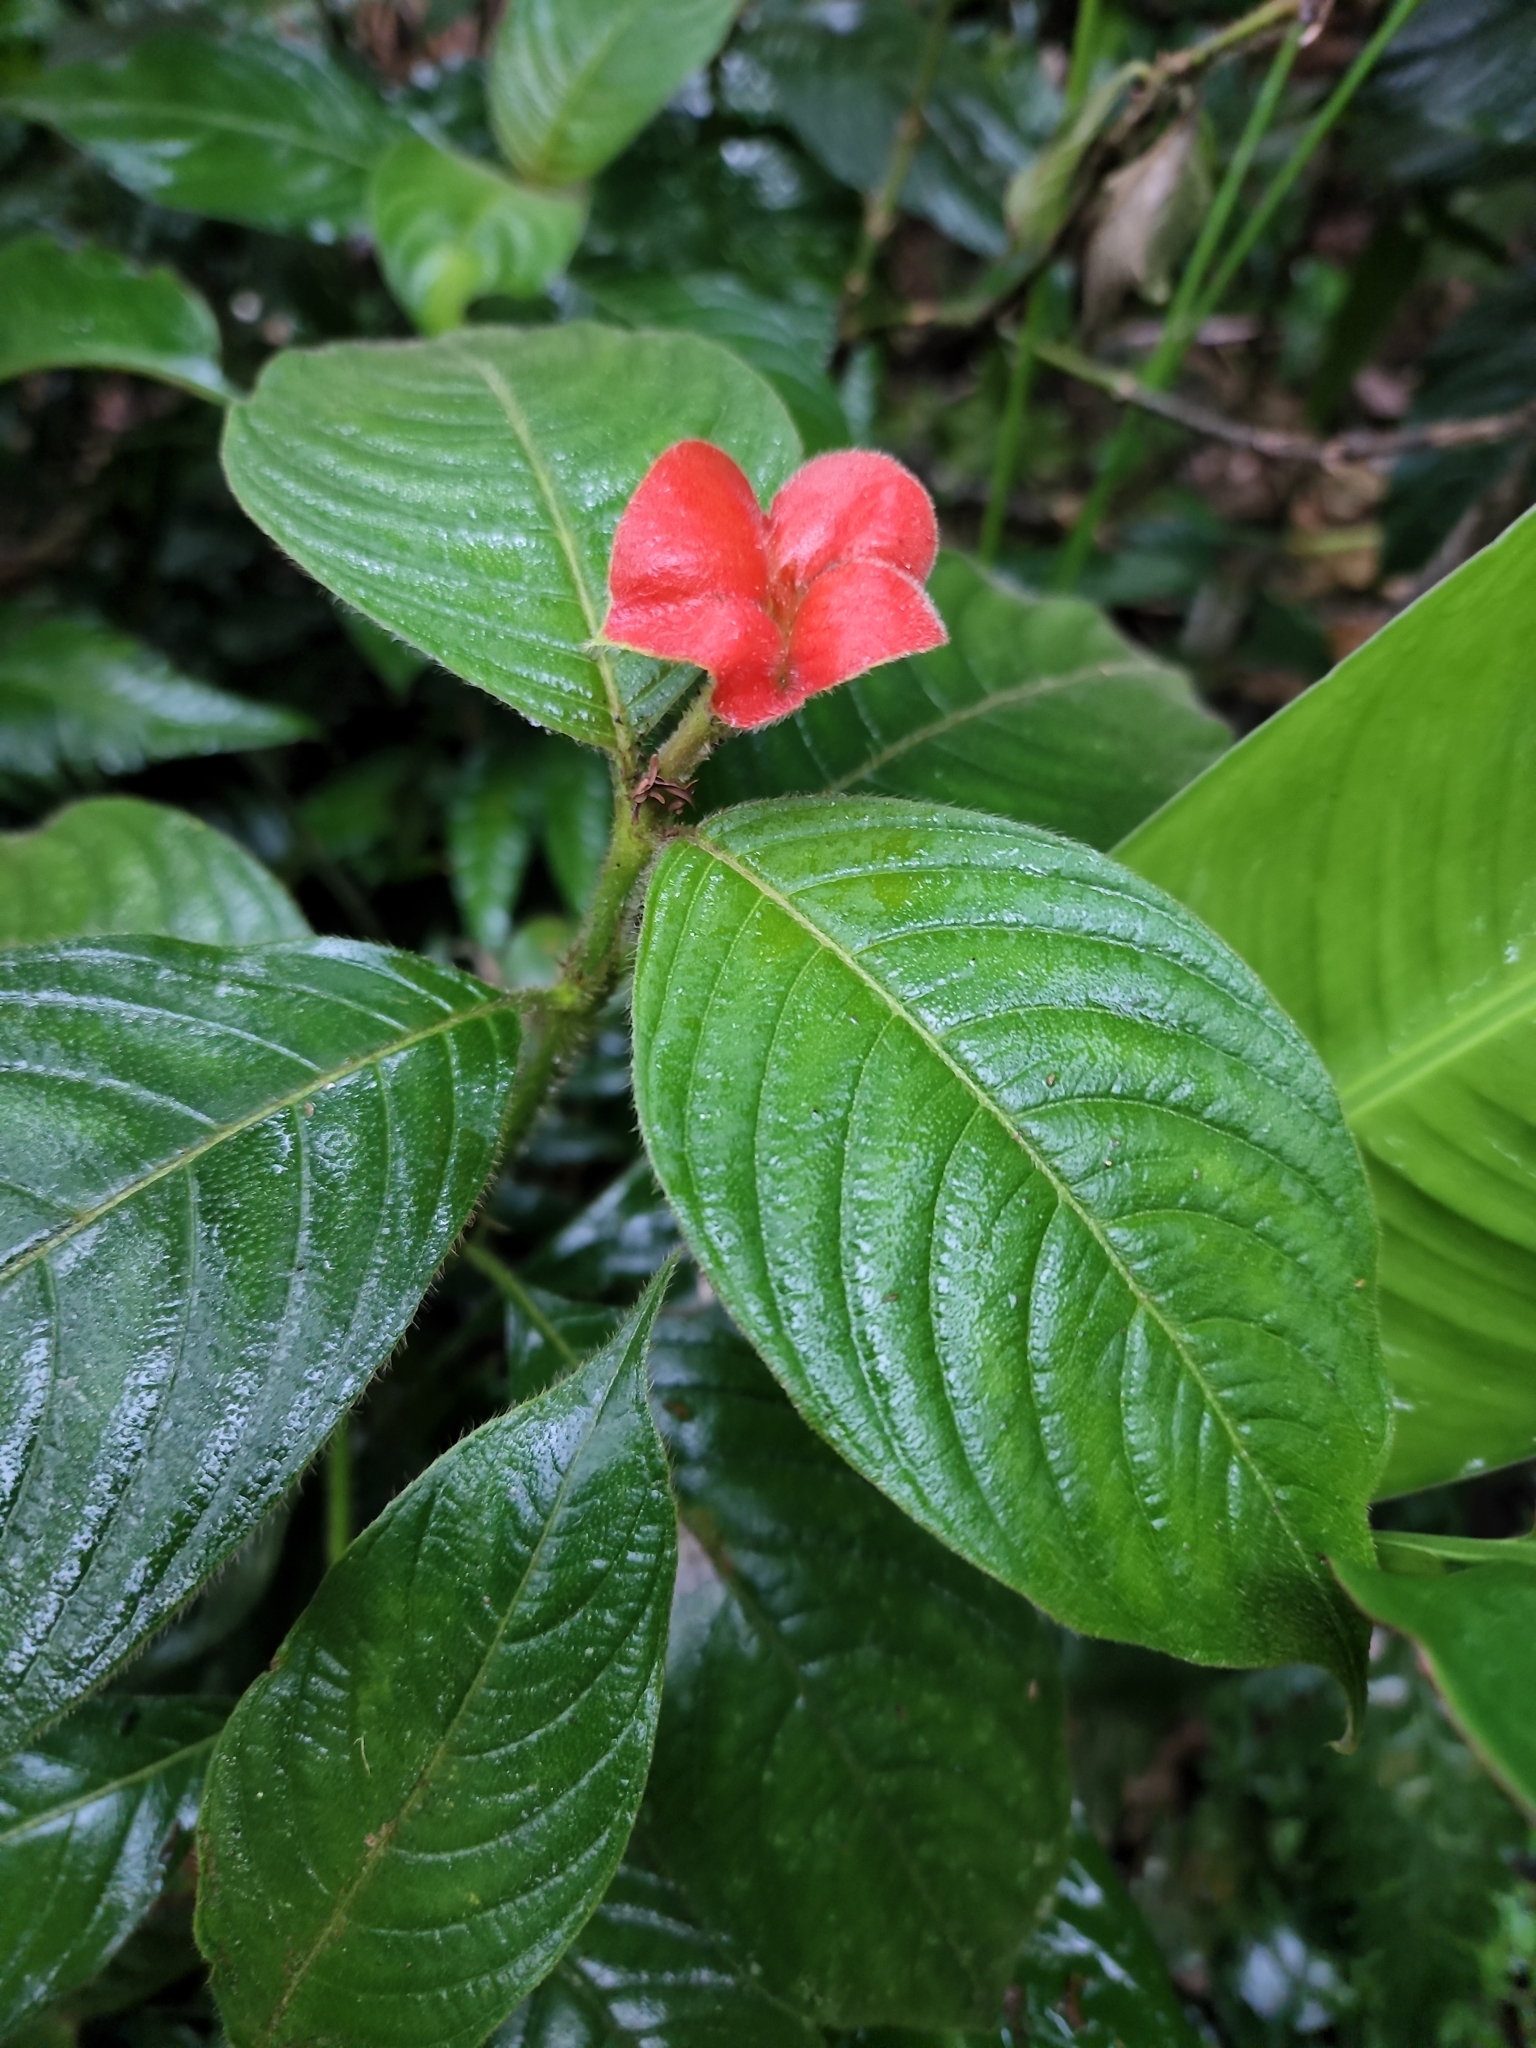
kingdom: Plantae
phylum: Tracheophyta
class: Magnoliopsida
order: Gentianales
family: Rubiaceae
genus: Palicourea
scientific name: Palicourea tomentosa
